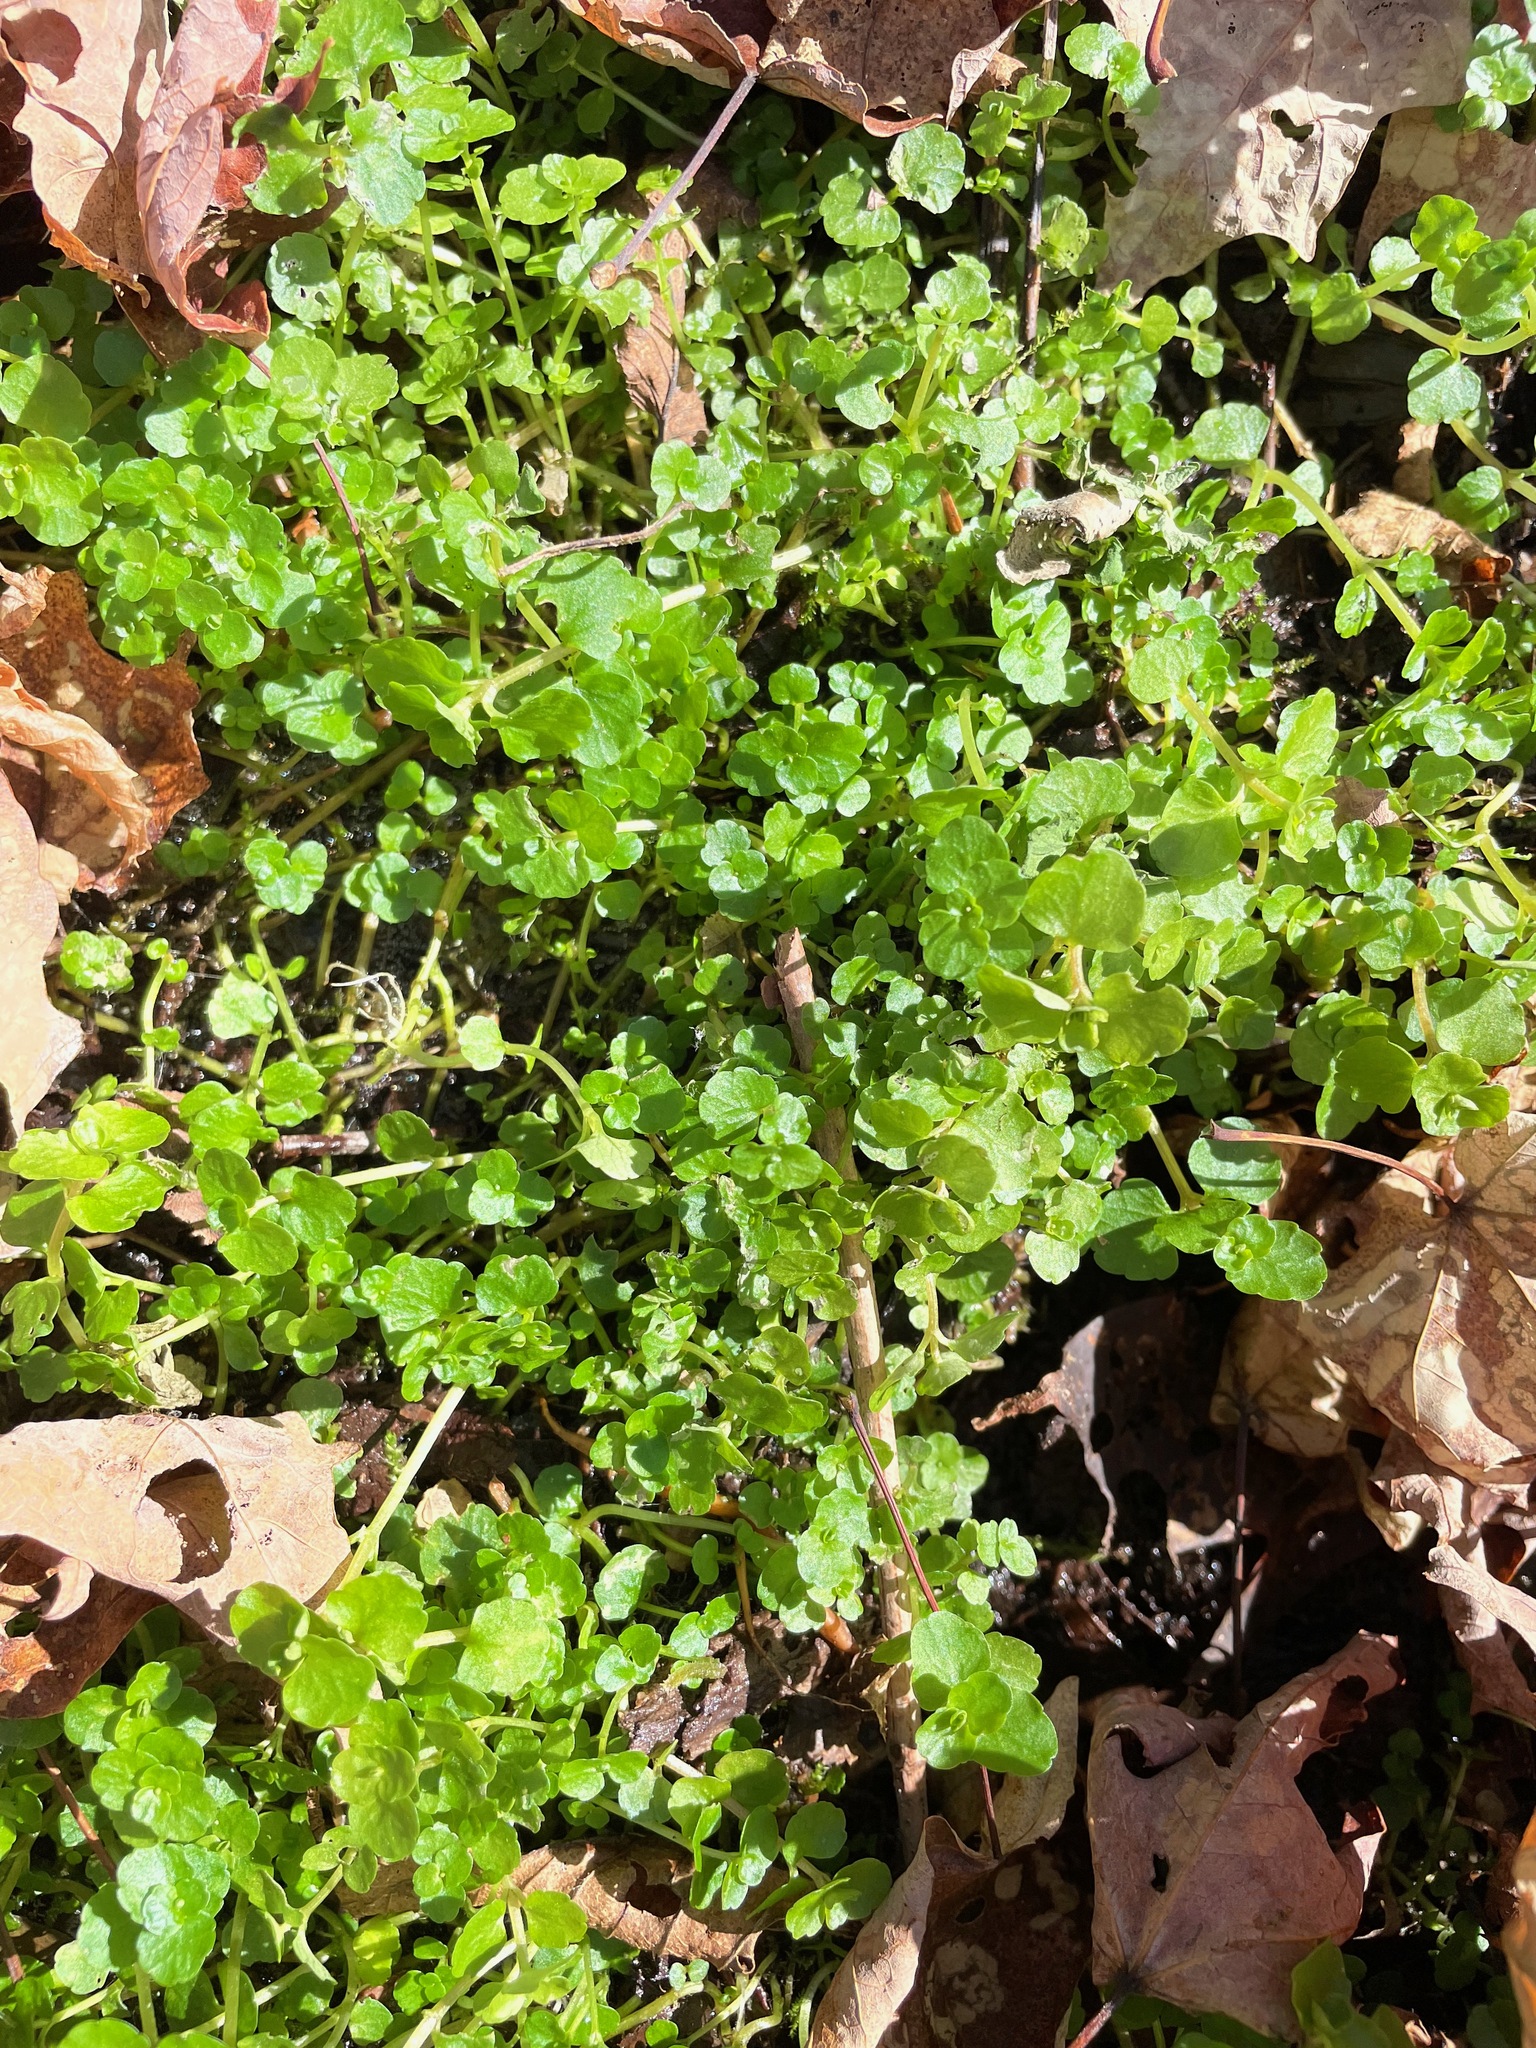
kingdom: Plantae
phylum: Tracheophyta
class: Magnoliopsida
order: Saxifragales
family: Saxifragaceae
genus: Chrysosplenium
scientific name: Chrysosplenium americanum
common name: American golden-saxifrage
